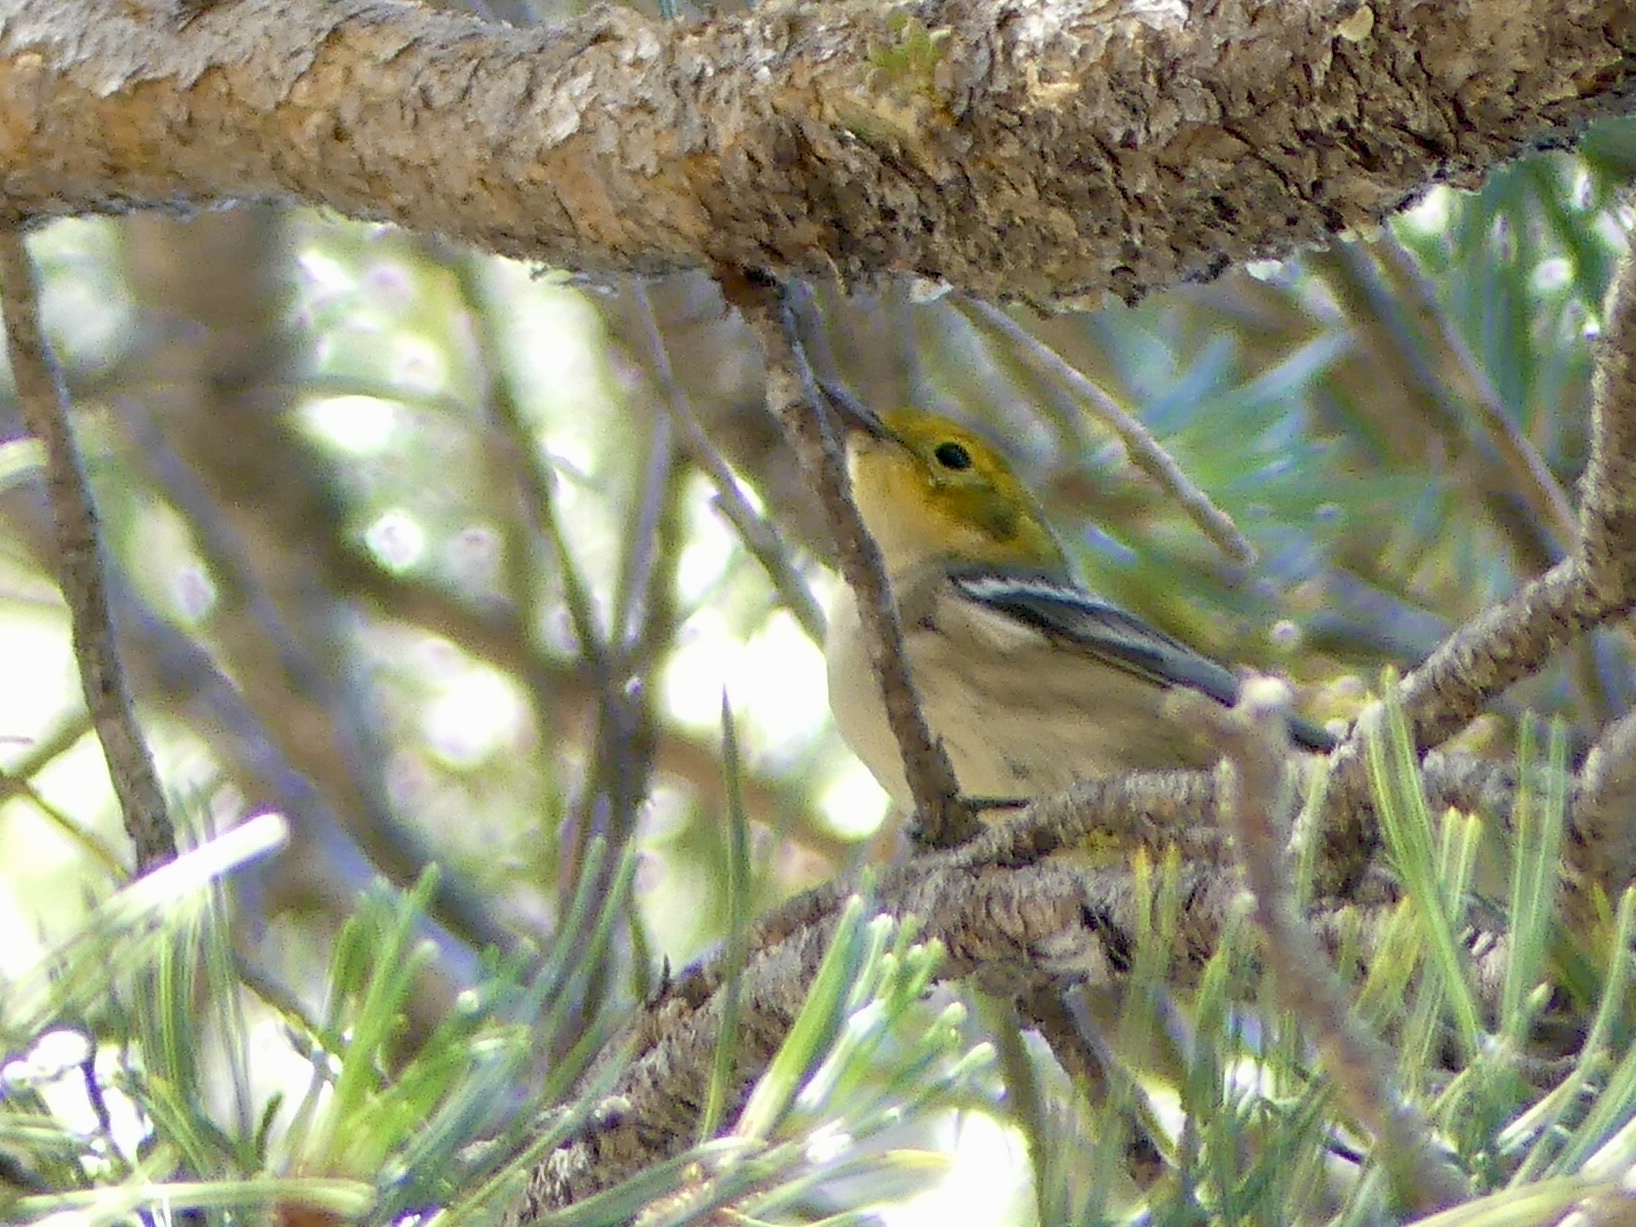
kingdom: Animalia
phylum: Chordata
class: Aves
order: Passeriformes
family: Parulidae
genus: Setophaga
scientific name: Setophaga occidentalis
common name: Hermit warbler
